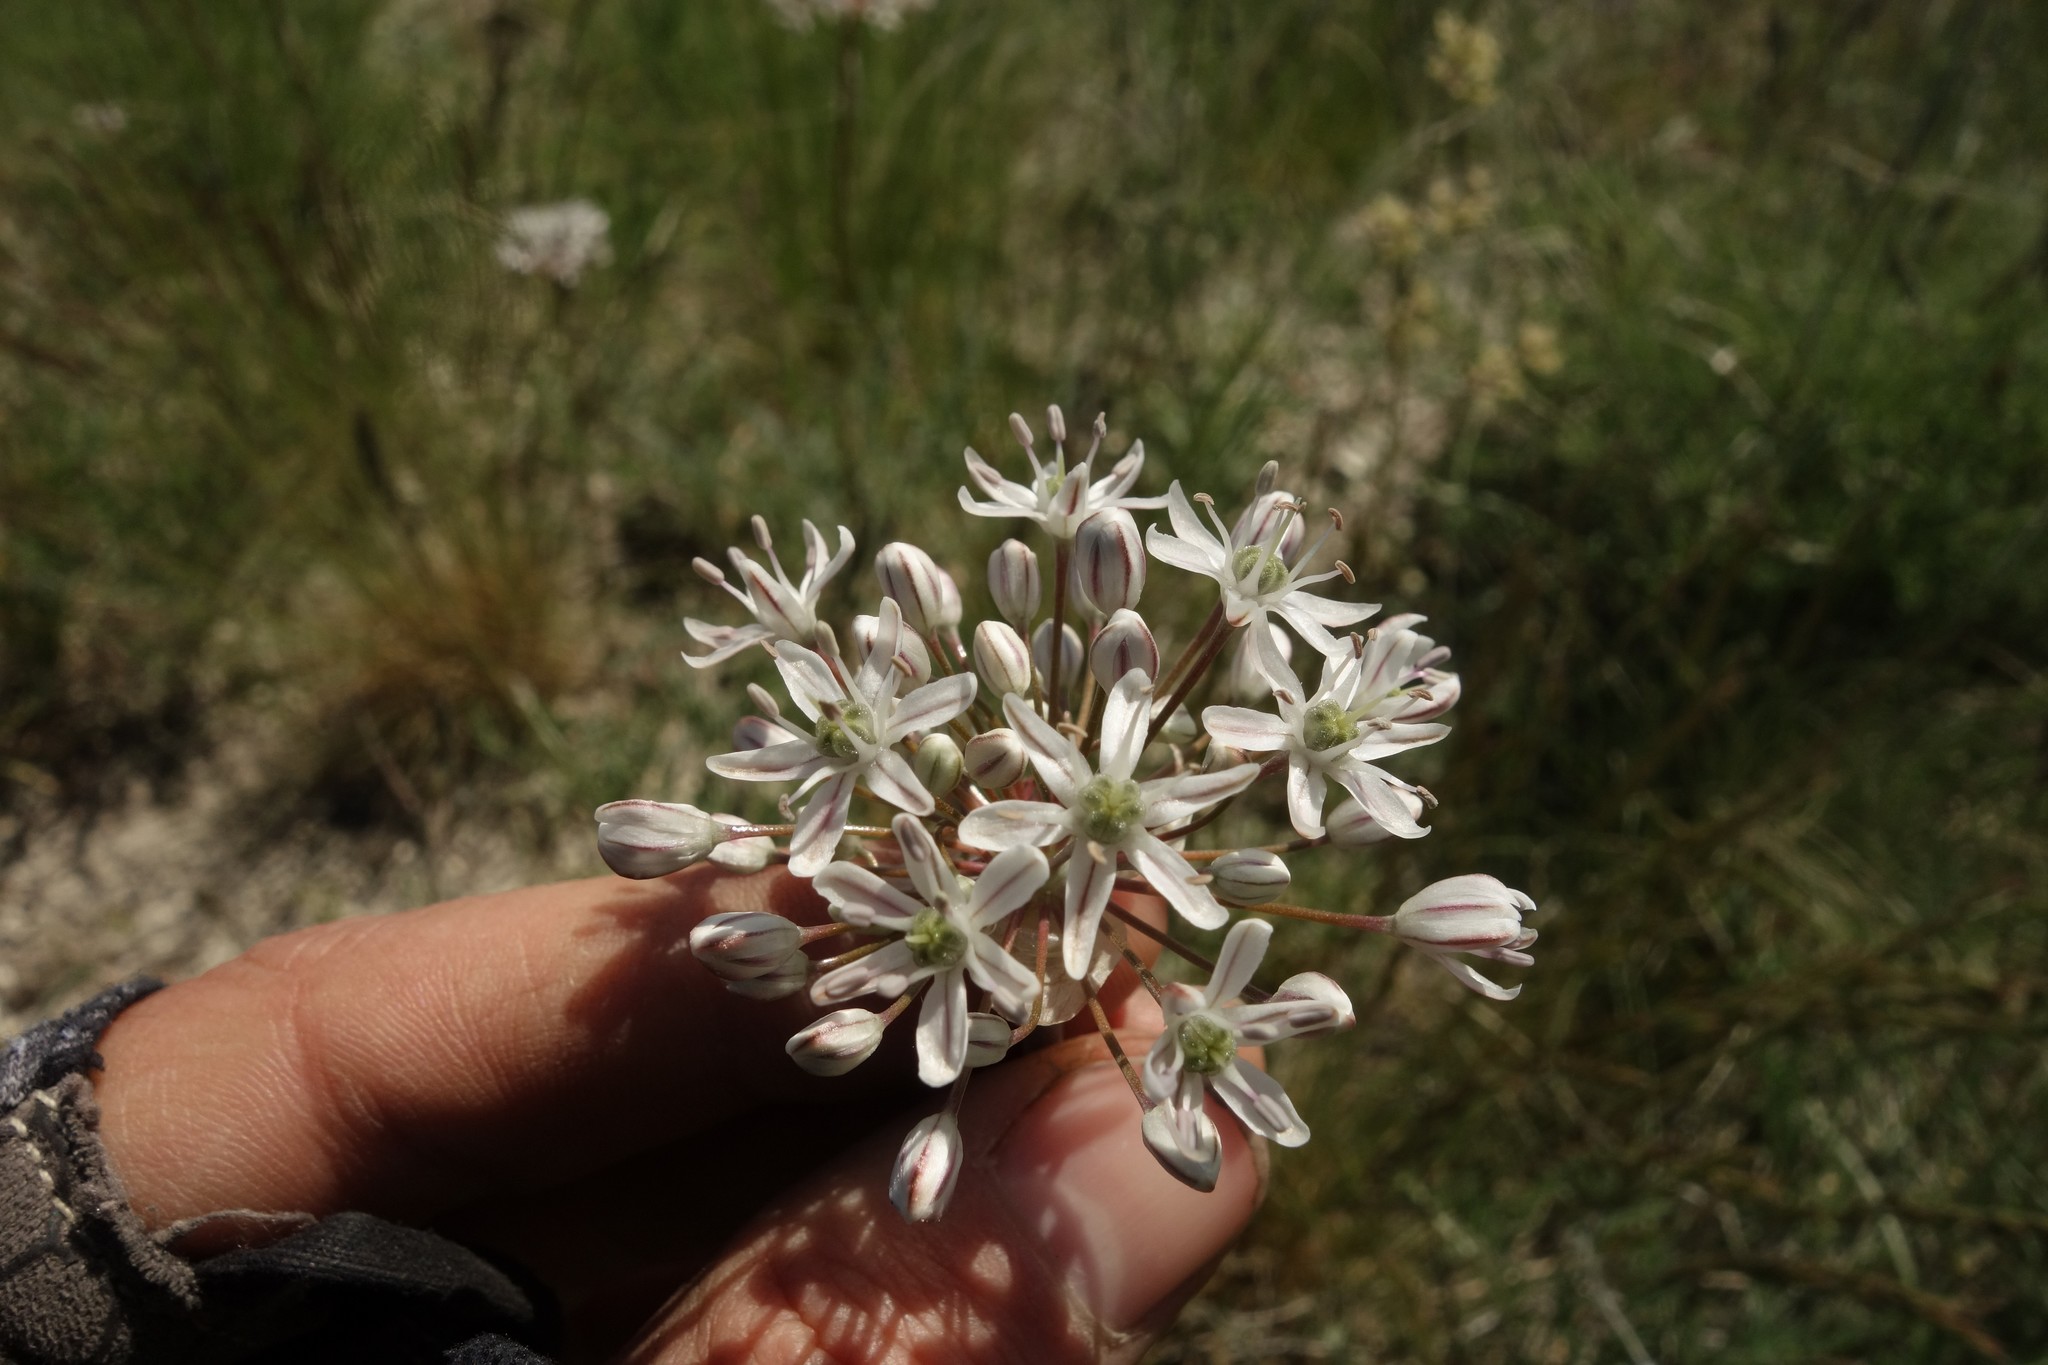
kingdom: Plantae
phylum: Tracheophyta
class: Liliopsida
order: Asparagales
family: Amaryllidaceae
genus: Allium
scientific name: Allium tulipifolium
